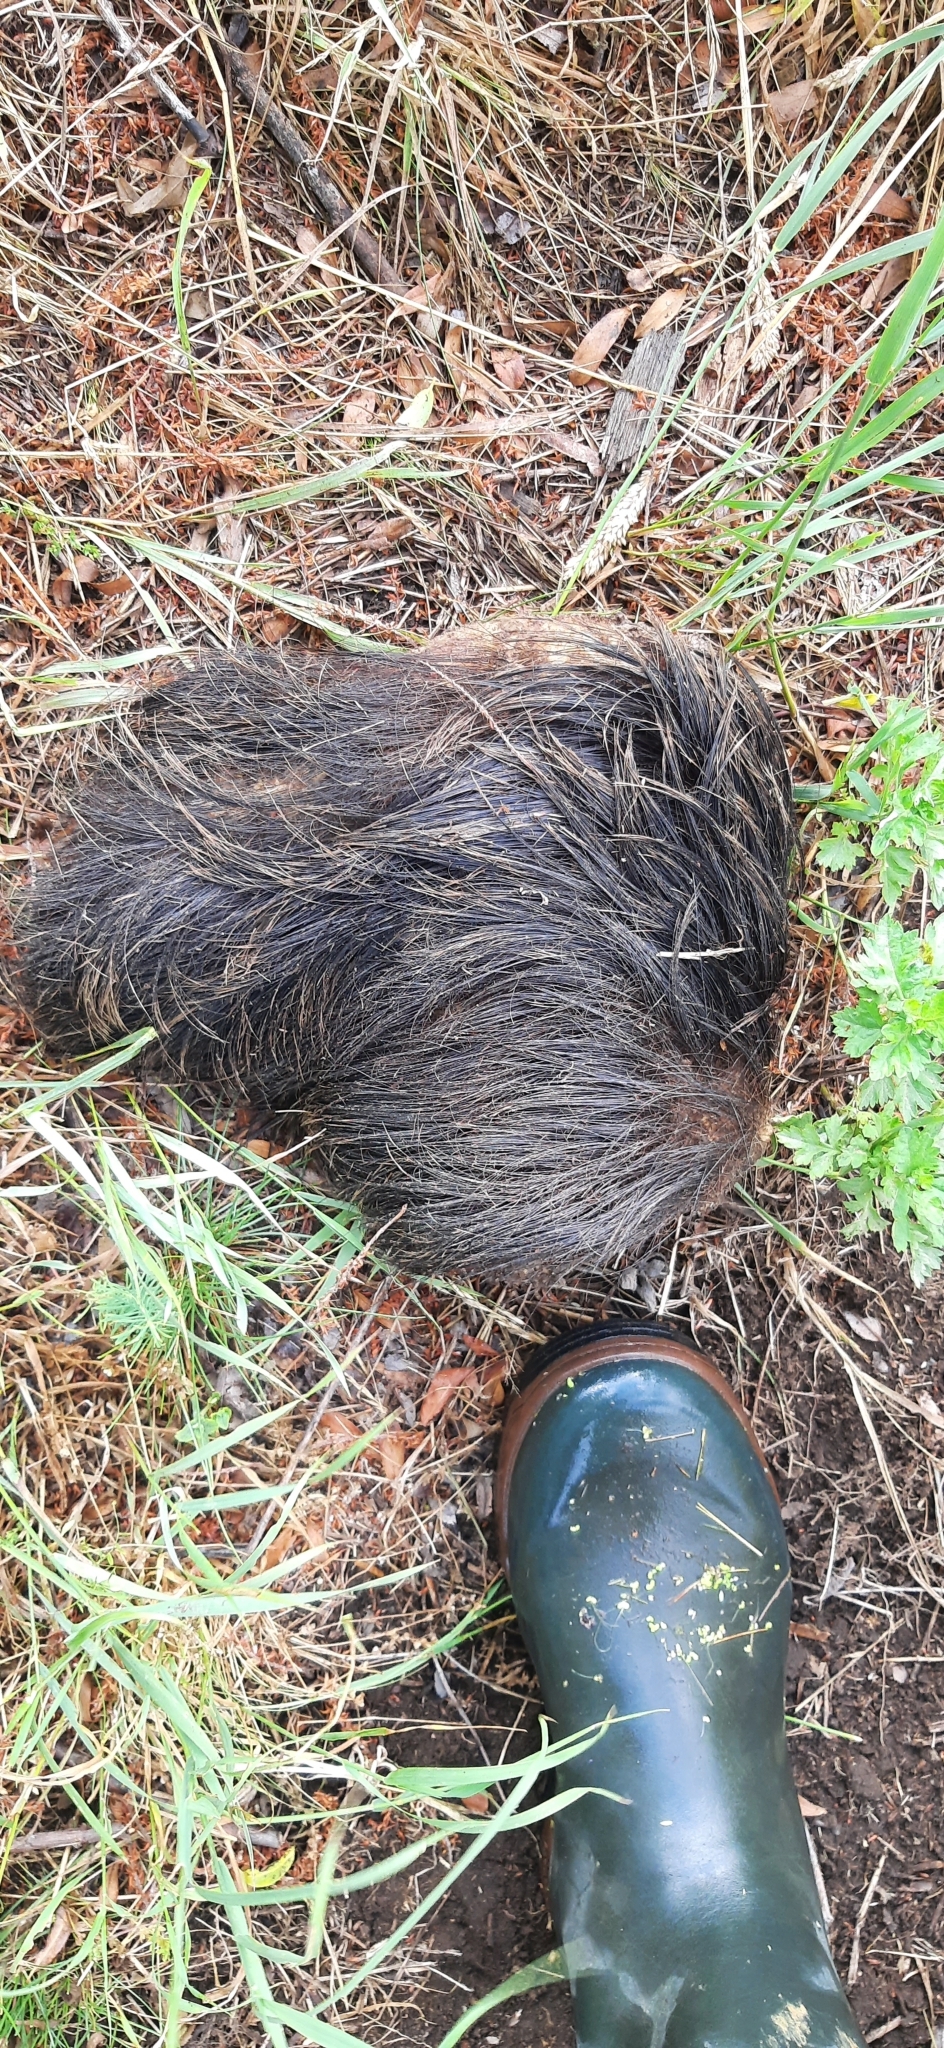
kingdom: Animalia
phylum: Chordata
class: Mammalia
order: Artiodactyla
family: Suidae
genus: Sus
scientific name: Sus scrofa
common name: Wild boar
